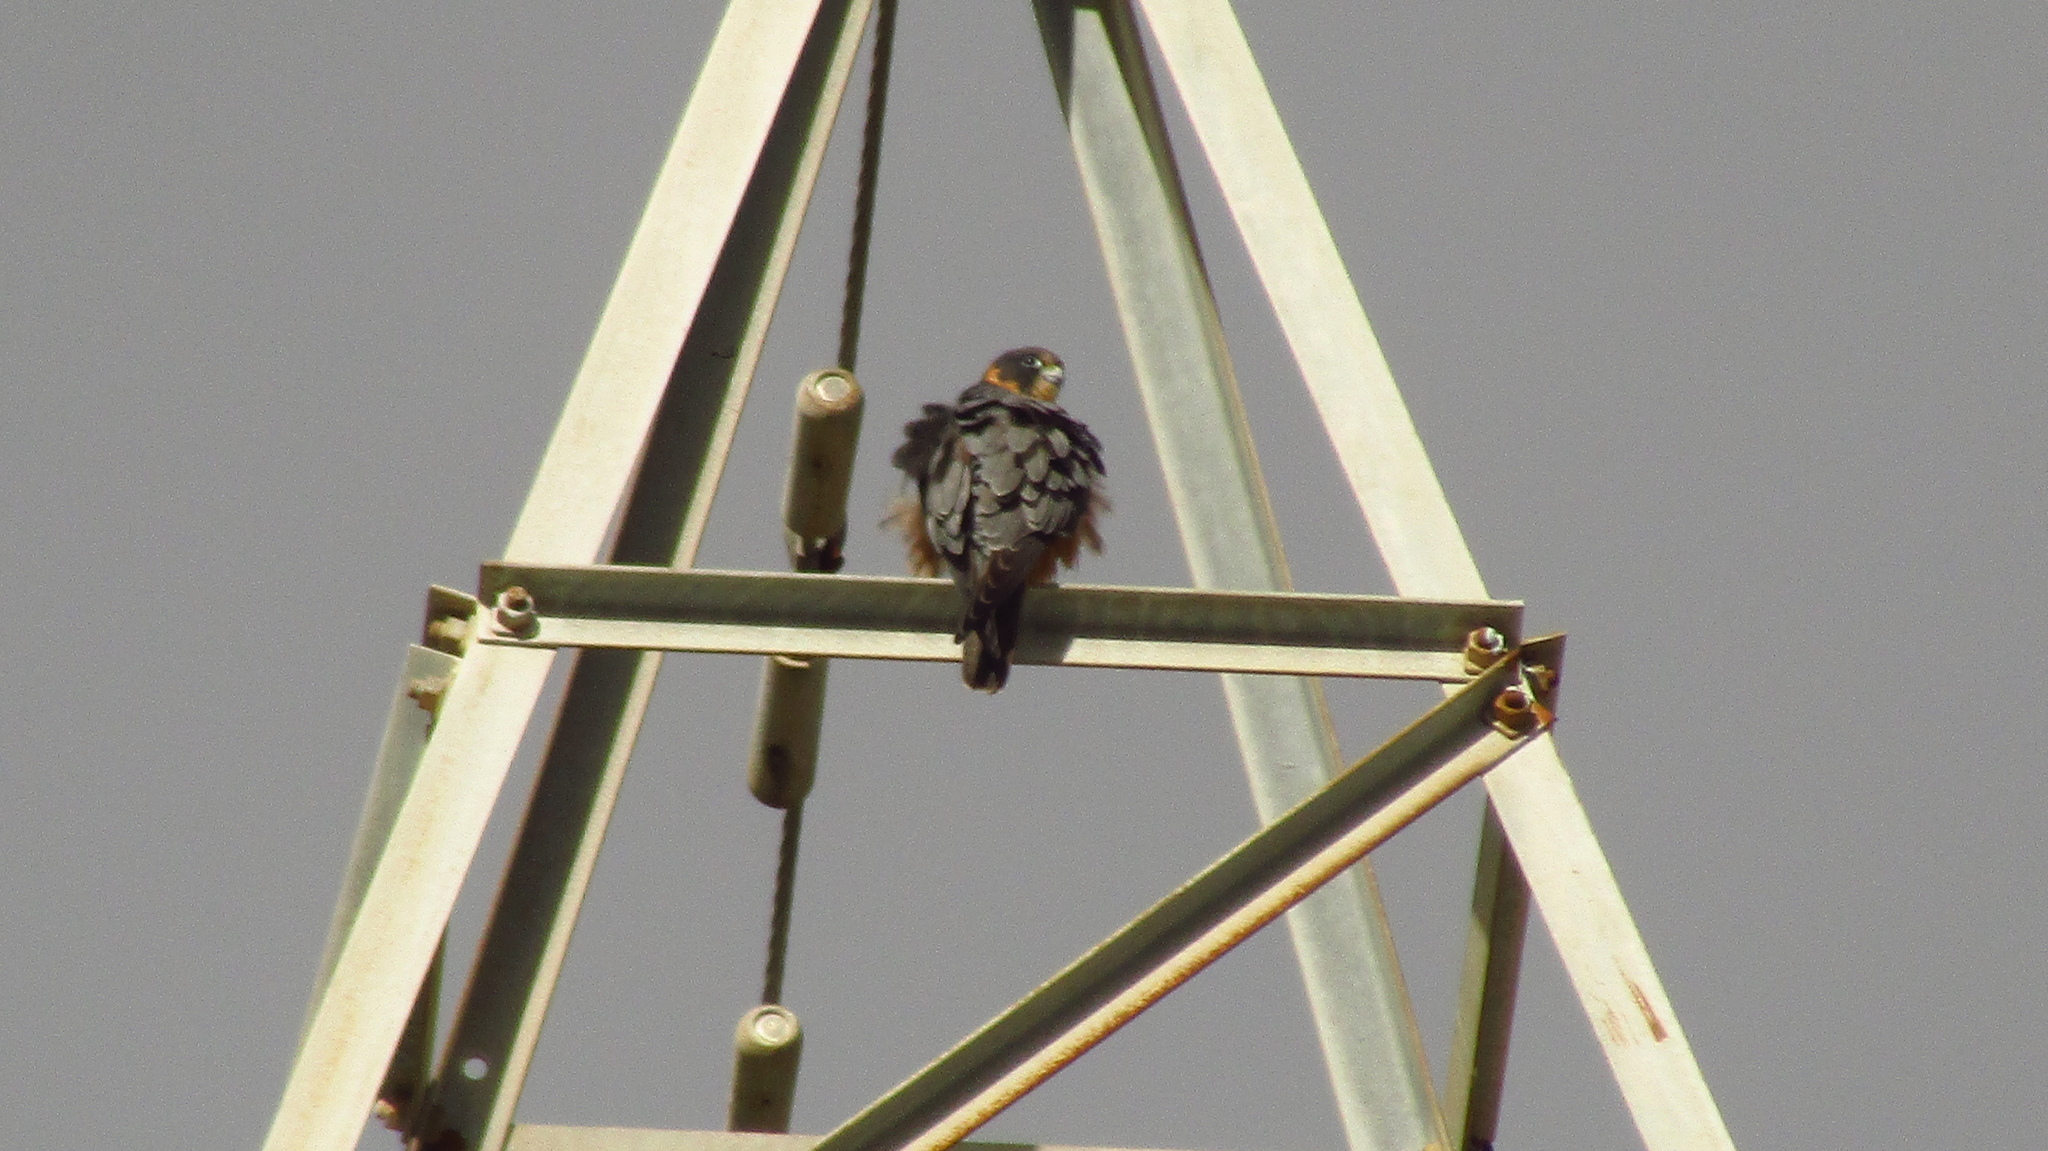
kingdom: Animalia
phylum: Chordata
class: Aves
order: Falconiformes
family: Falconidae
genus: Falco
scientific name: Falco longipennis
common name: Australian hobby
